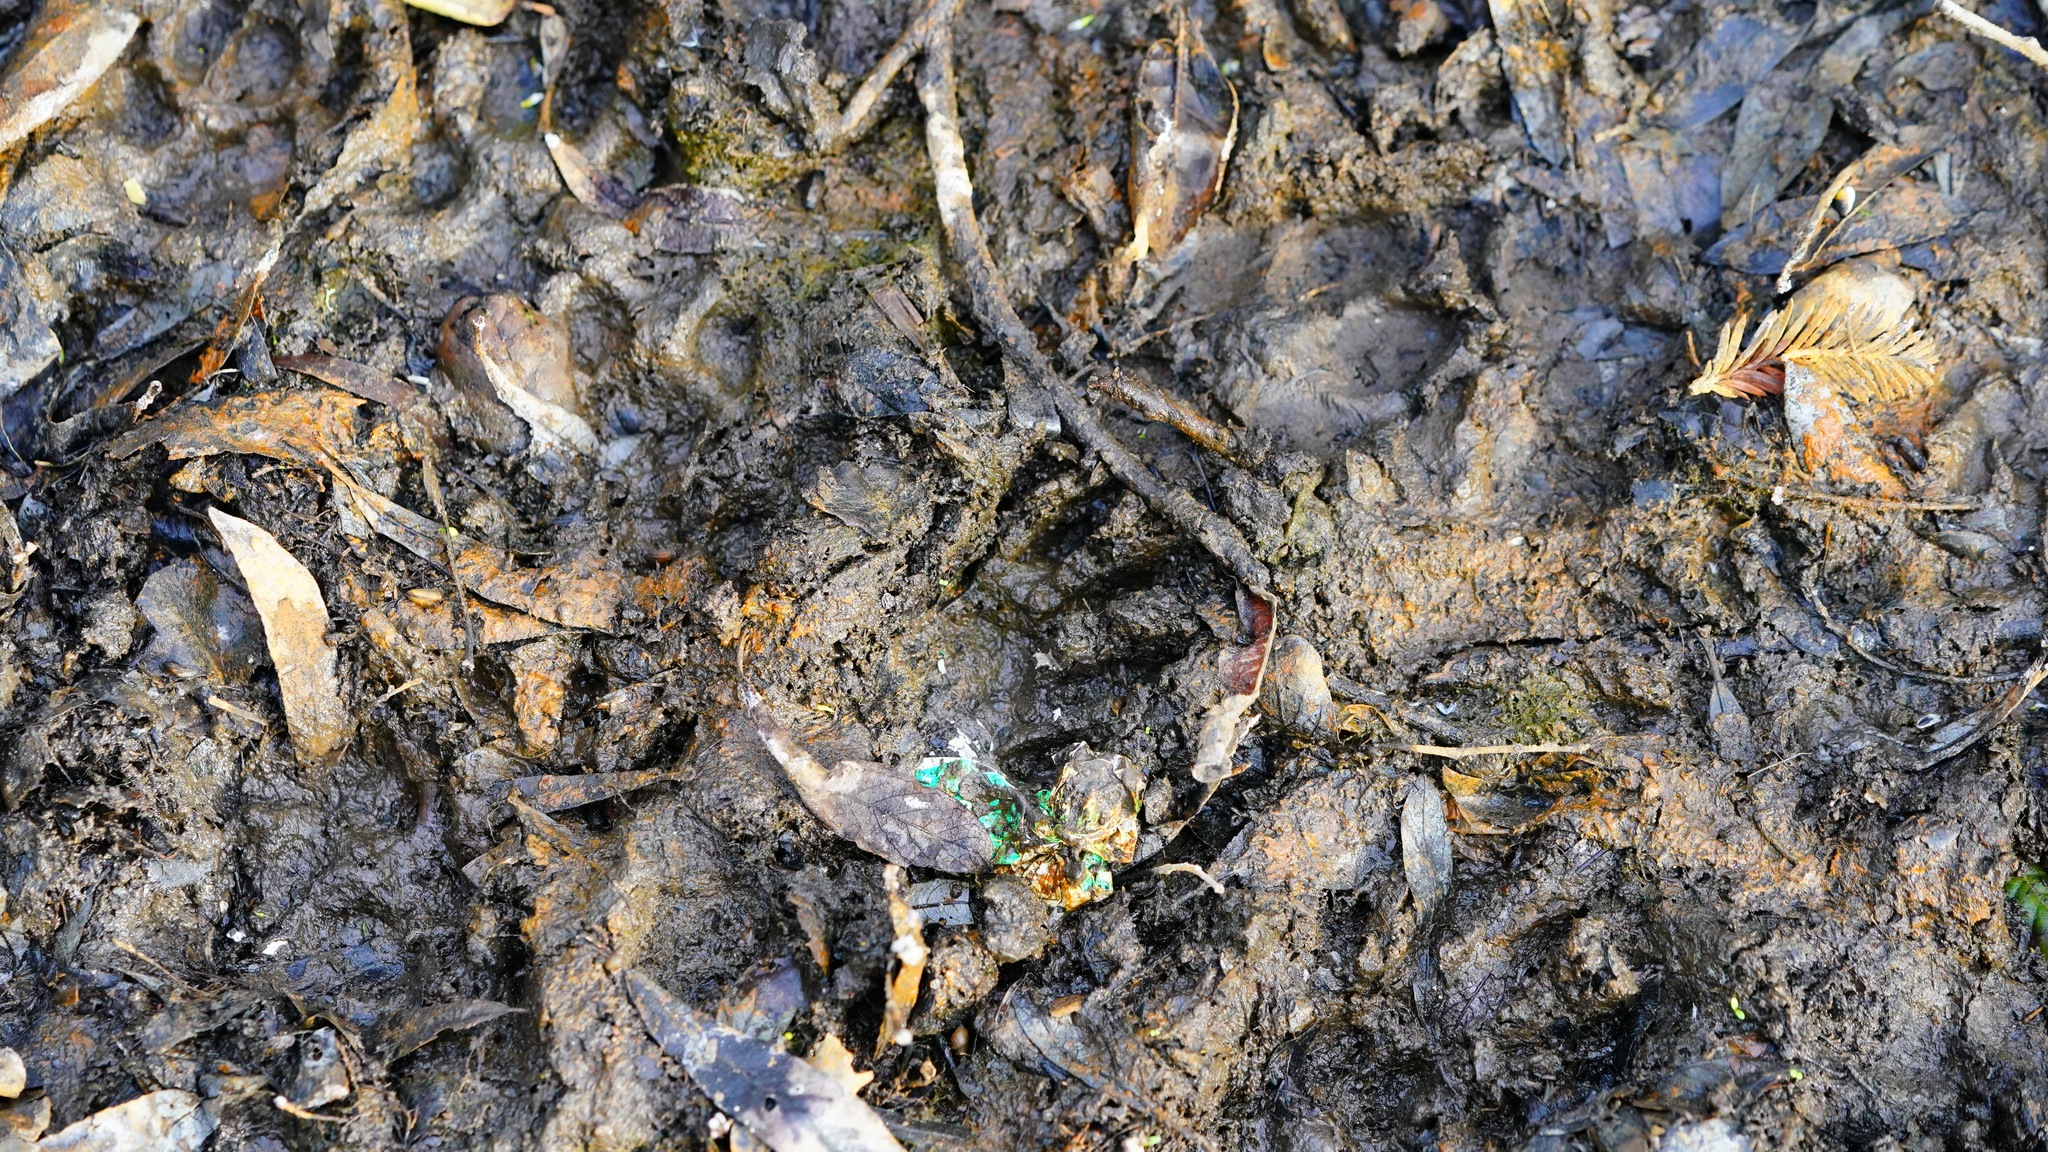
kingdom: Animalia
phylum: Chordata
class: Mammalia
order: Carnivora
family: Procyonidae
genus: Procyon
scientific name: Procyon lotor
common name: Raccoon
